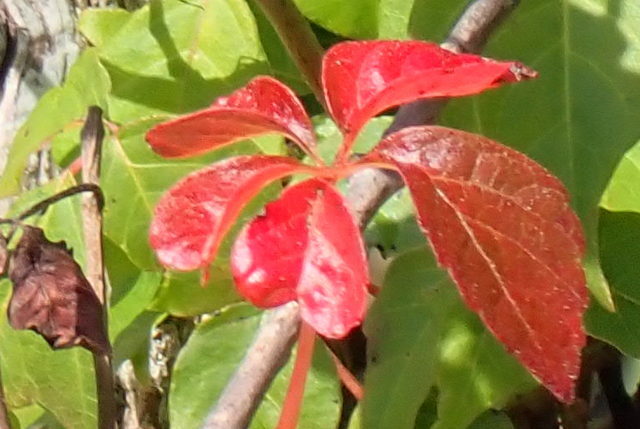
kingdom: Plantae
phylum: Tracheophyta
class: Magnoliopsida
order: Vitales
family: Vitaceae
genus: Parthenocissus
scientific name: Parthenocissus quinquefolia
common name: Virginia-creeper
